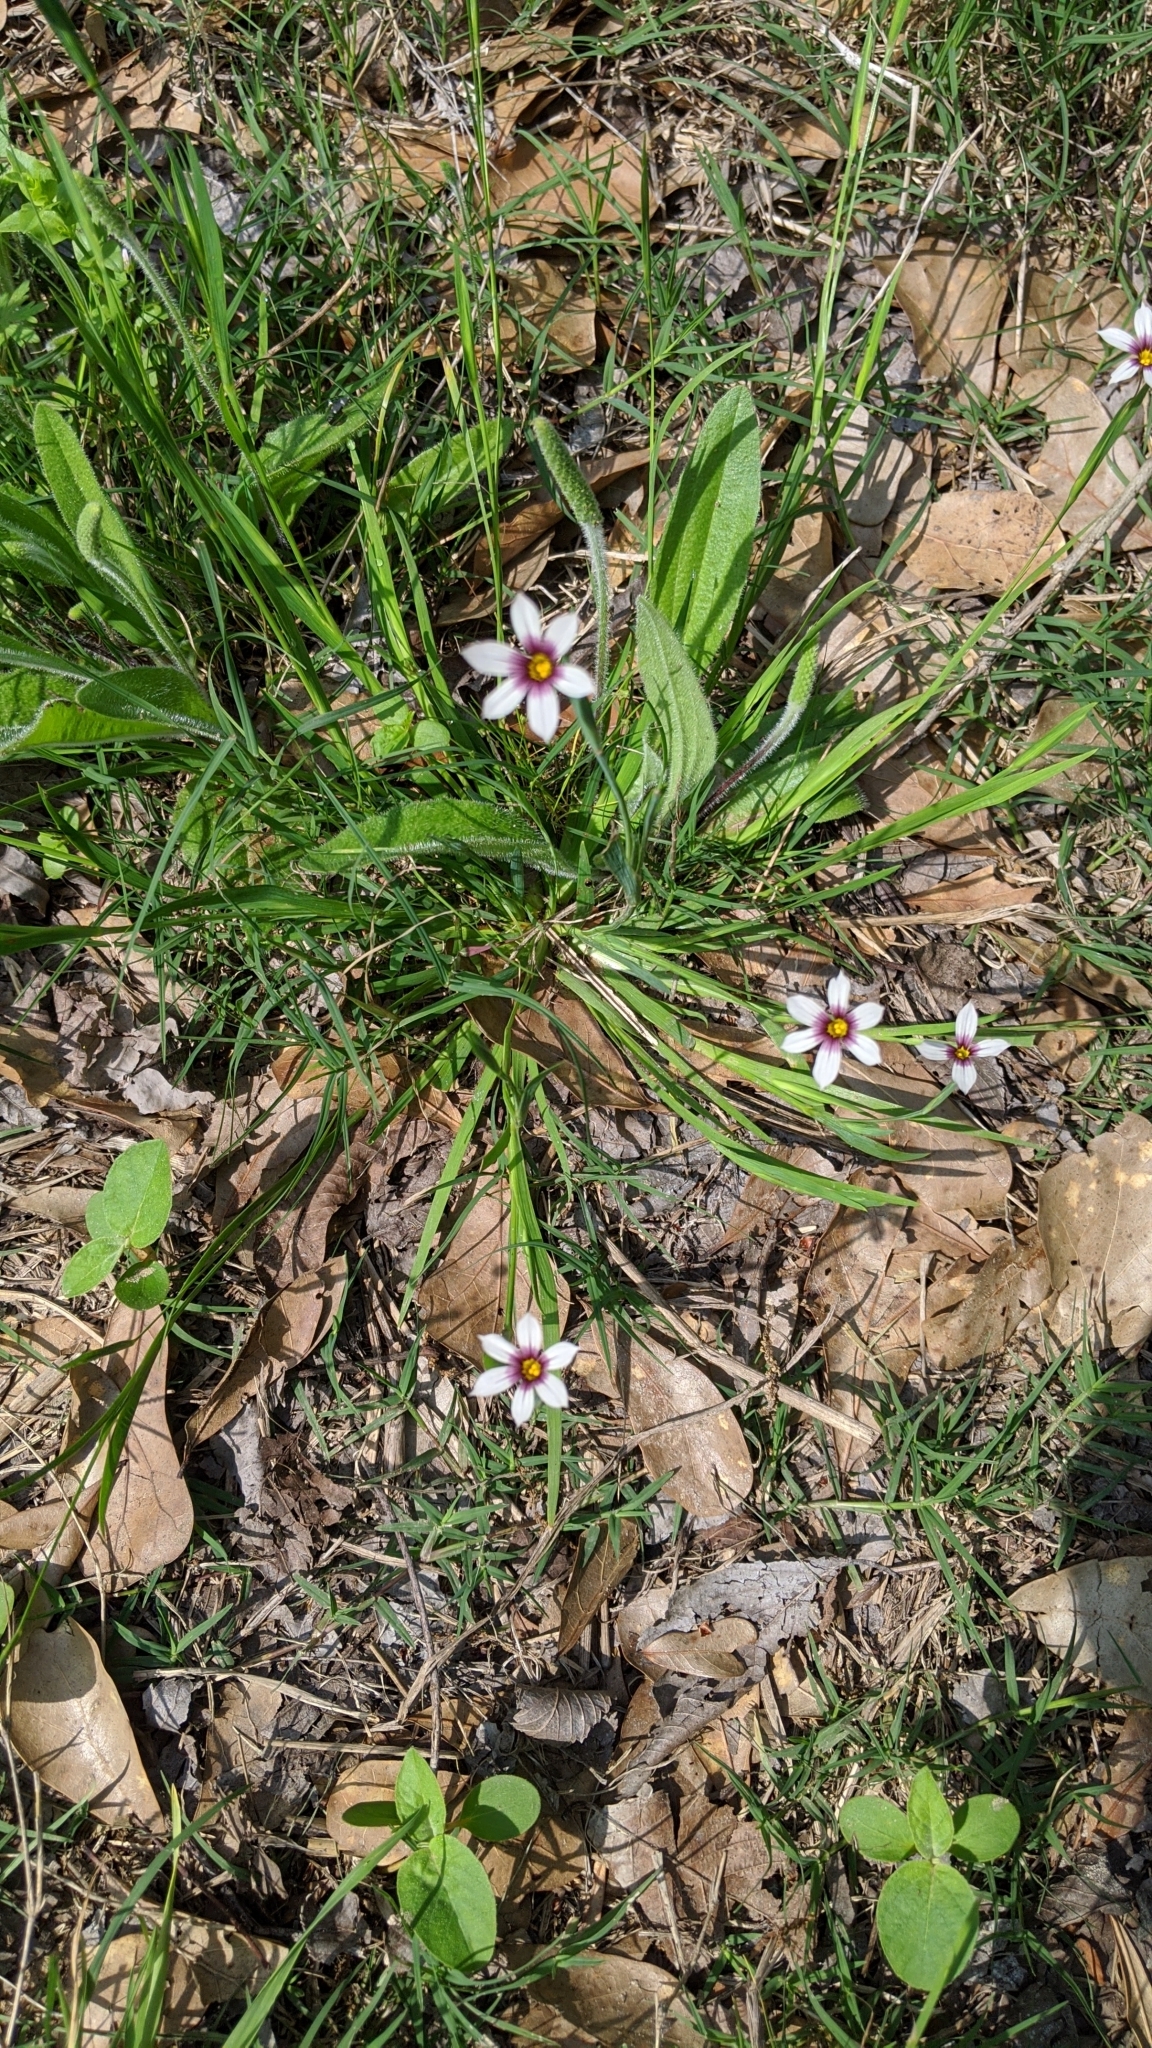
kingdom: Plantae
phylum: Tracheophyta
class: Liliopsida
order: Asparagales
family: Iridaceae
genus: Sisyrinchium
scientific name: Sisyrinchium micranthum
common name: Bermuda pigroot
